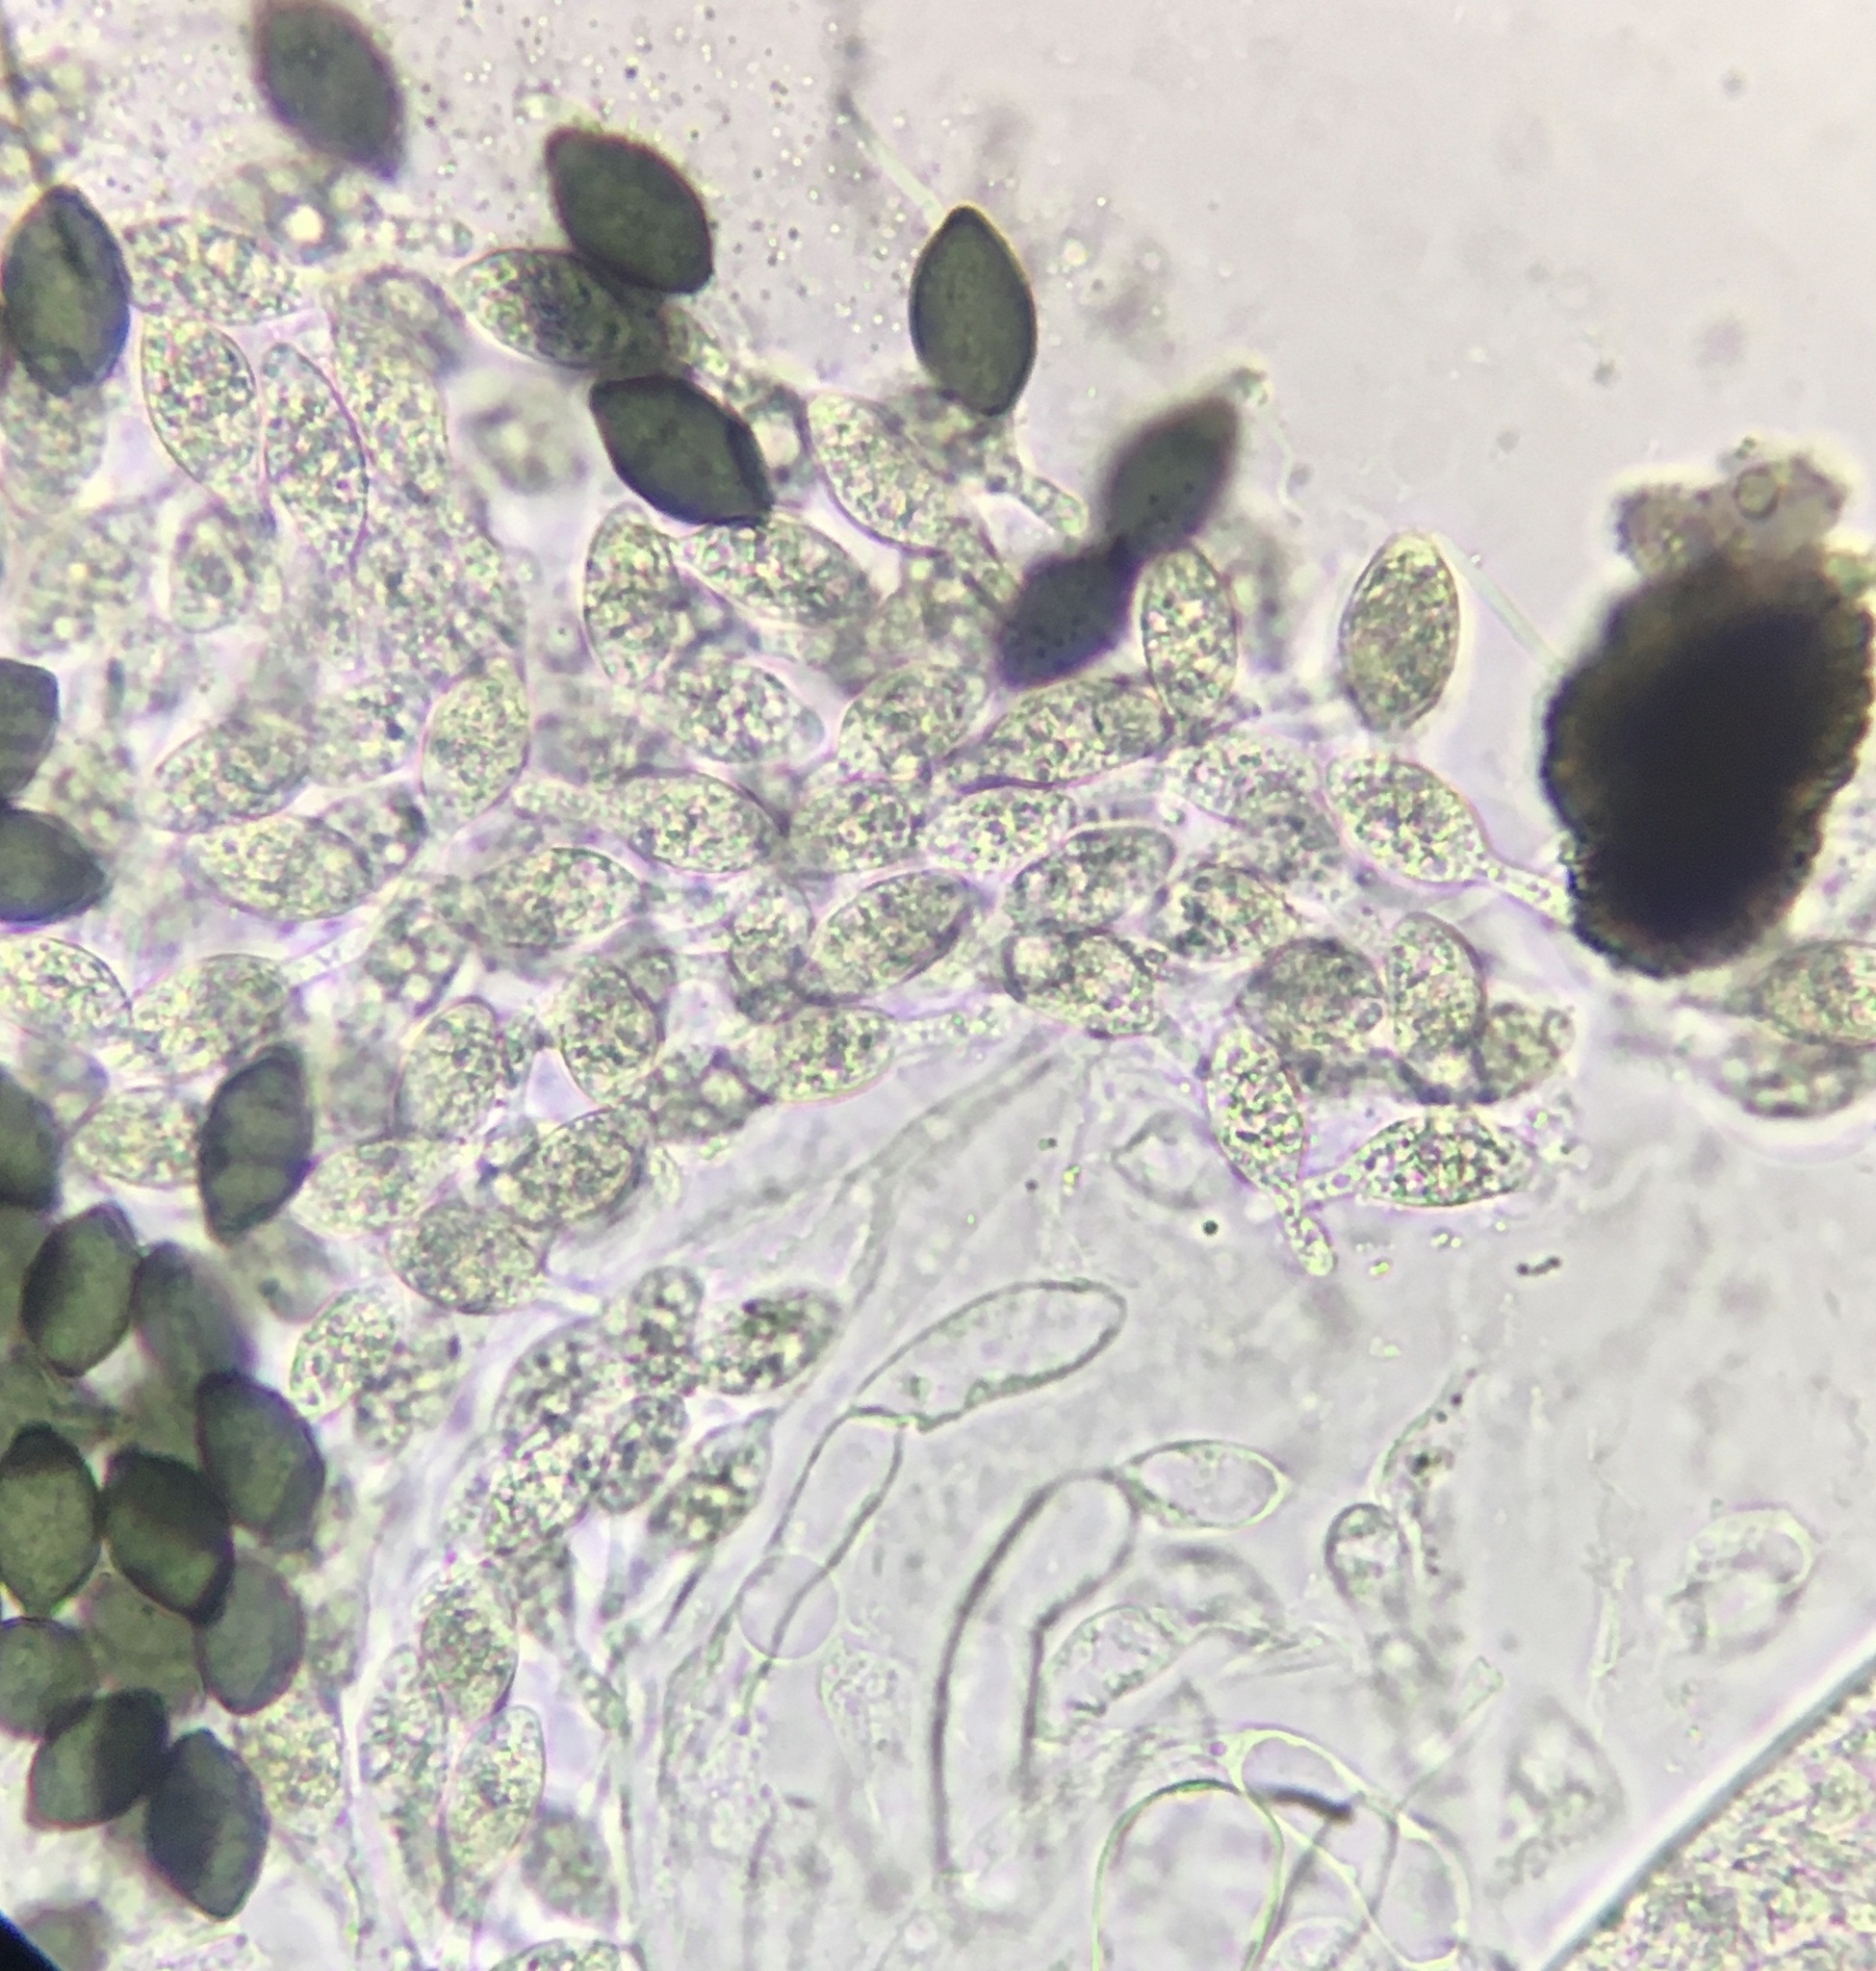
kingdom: Fungi
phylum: Ascomycota
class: Sordariomycetes
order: Sordariales
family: Podosporaceae
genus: Triangularia
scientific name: Triangularia setosa
